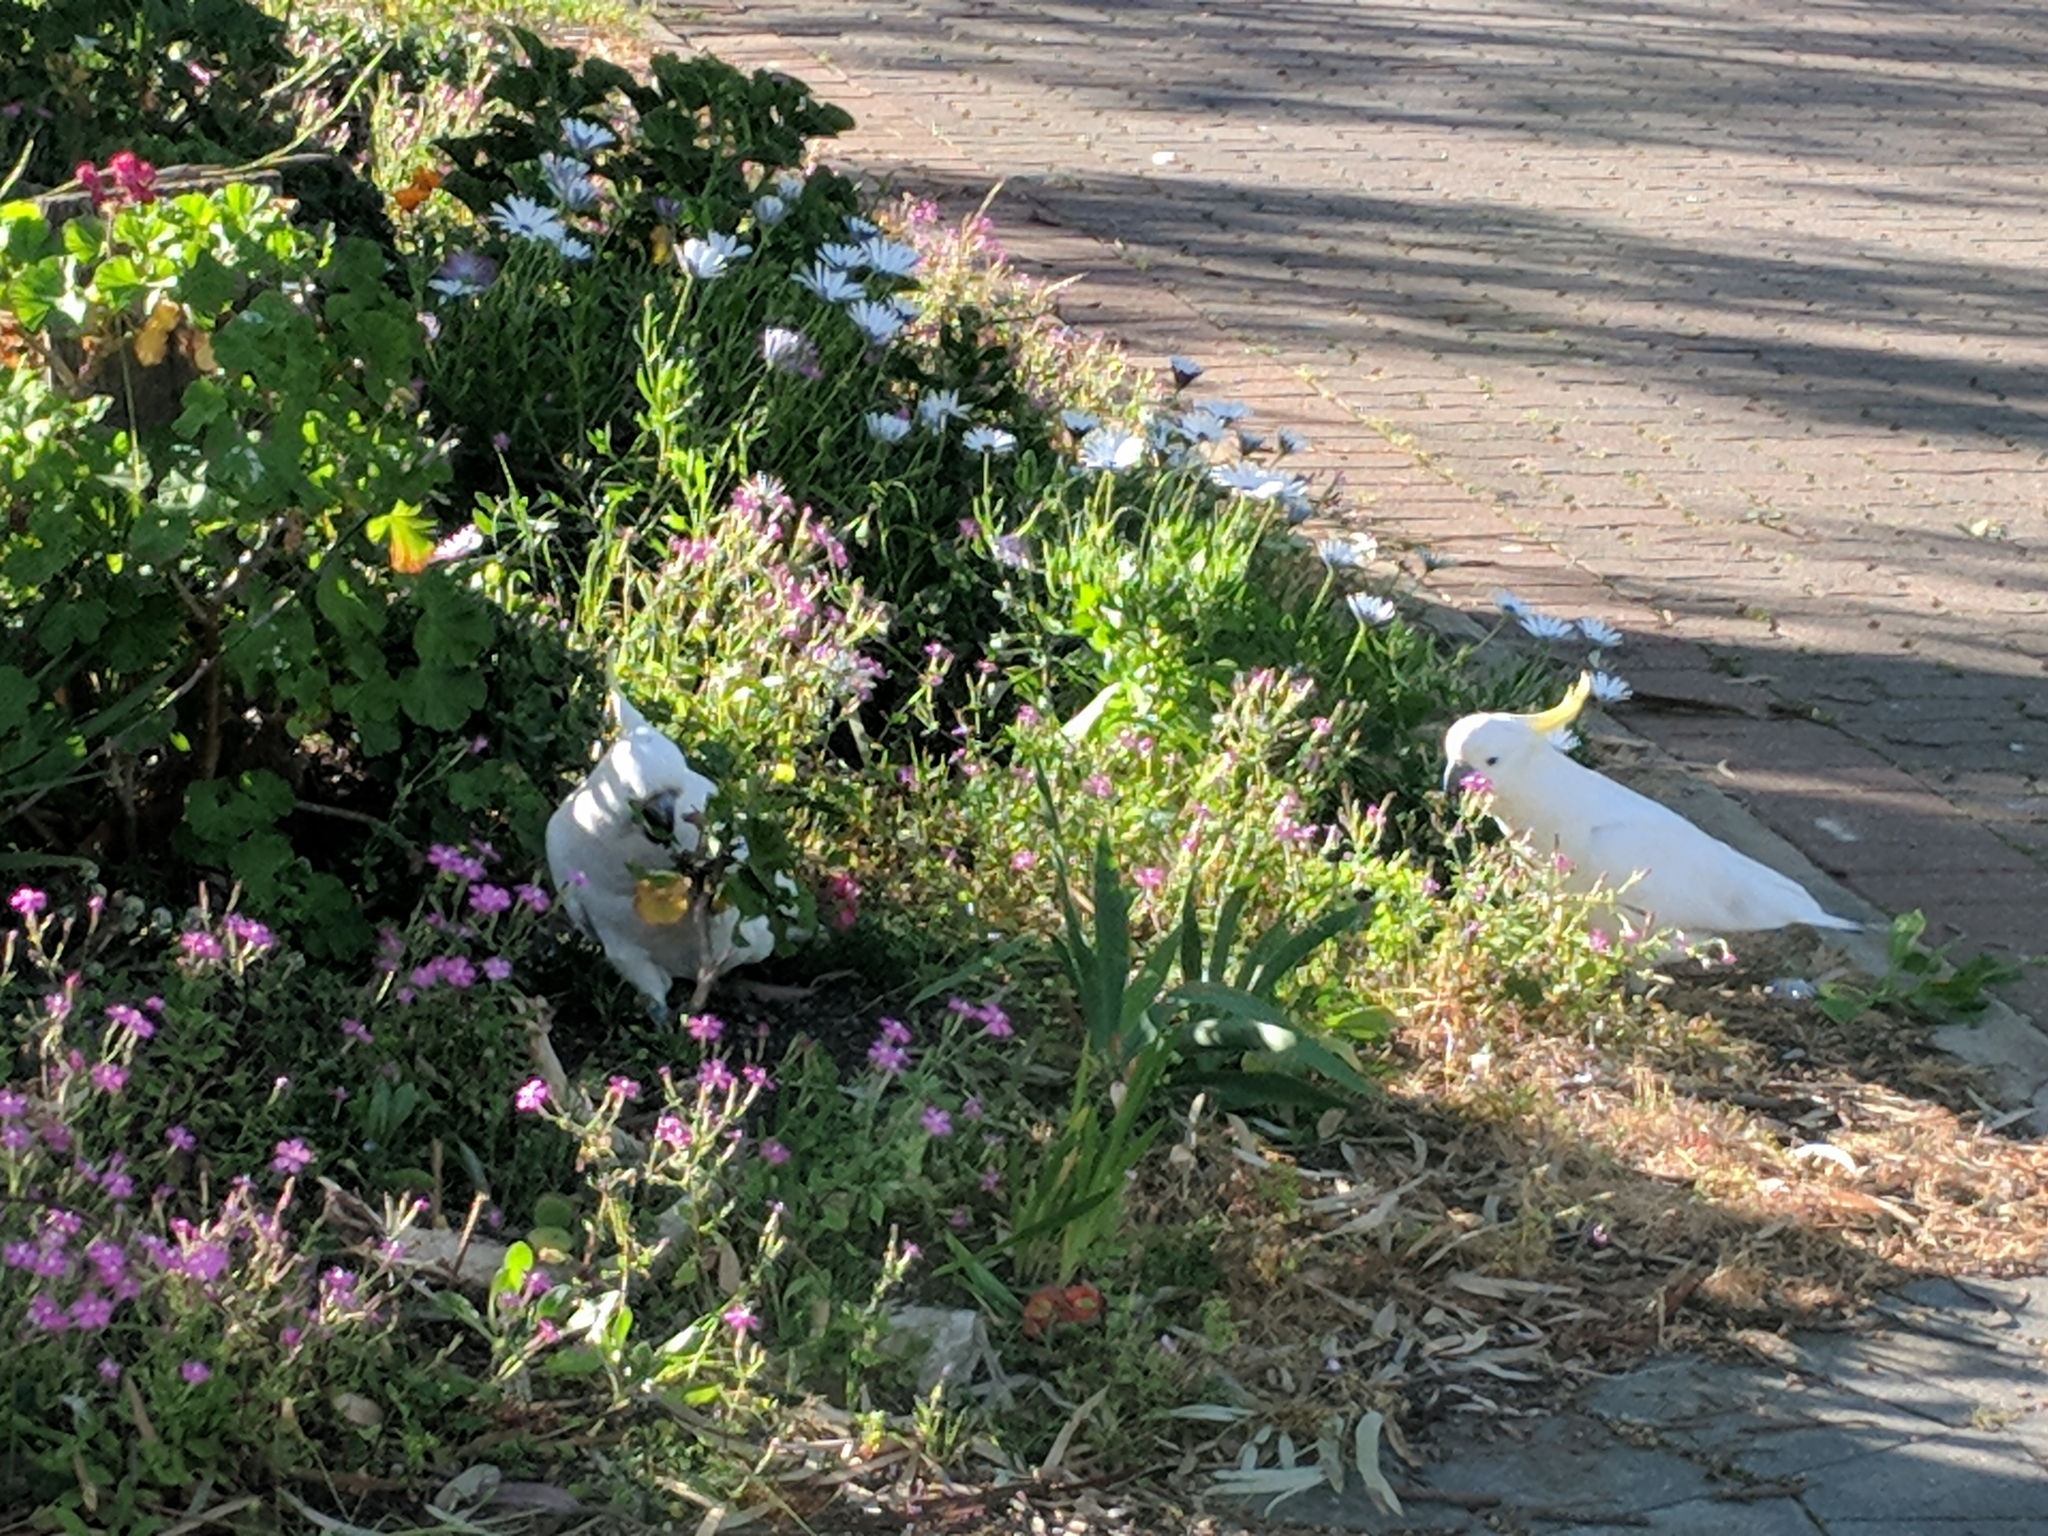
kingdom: Animalia
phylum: Chordata
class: Aves
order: Psittaciformes
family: Psittacidae
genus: Cacatua
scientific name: Cacatua galerita
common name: Sulphur-crested cockatoo
